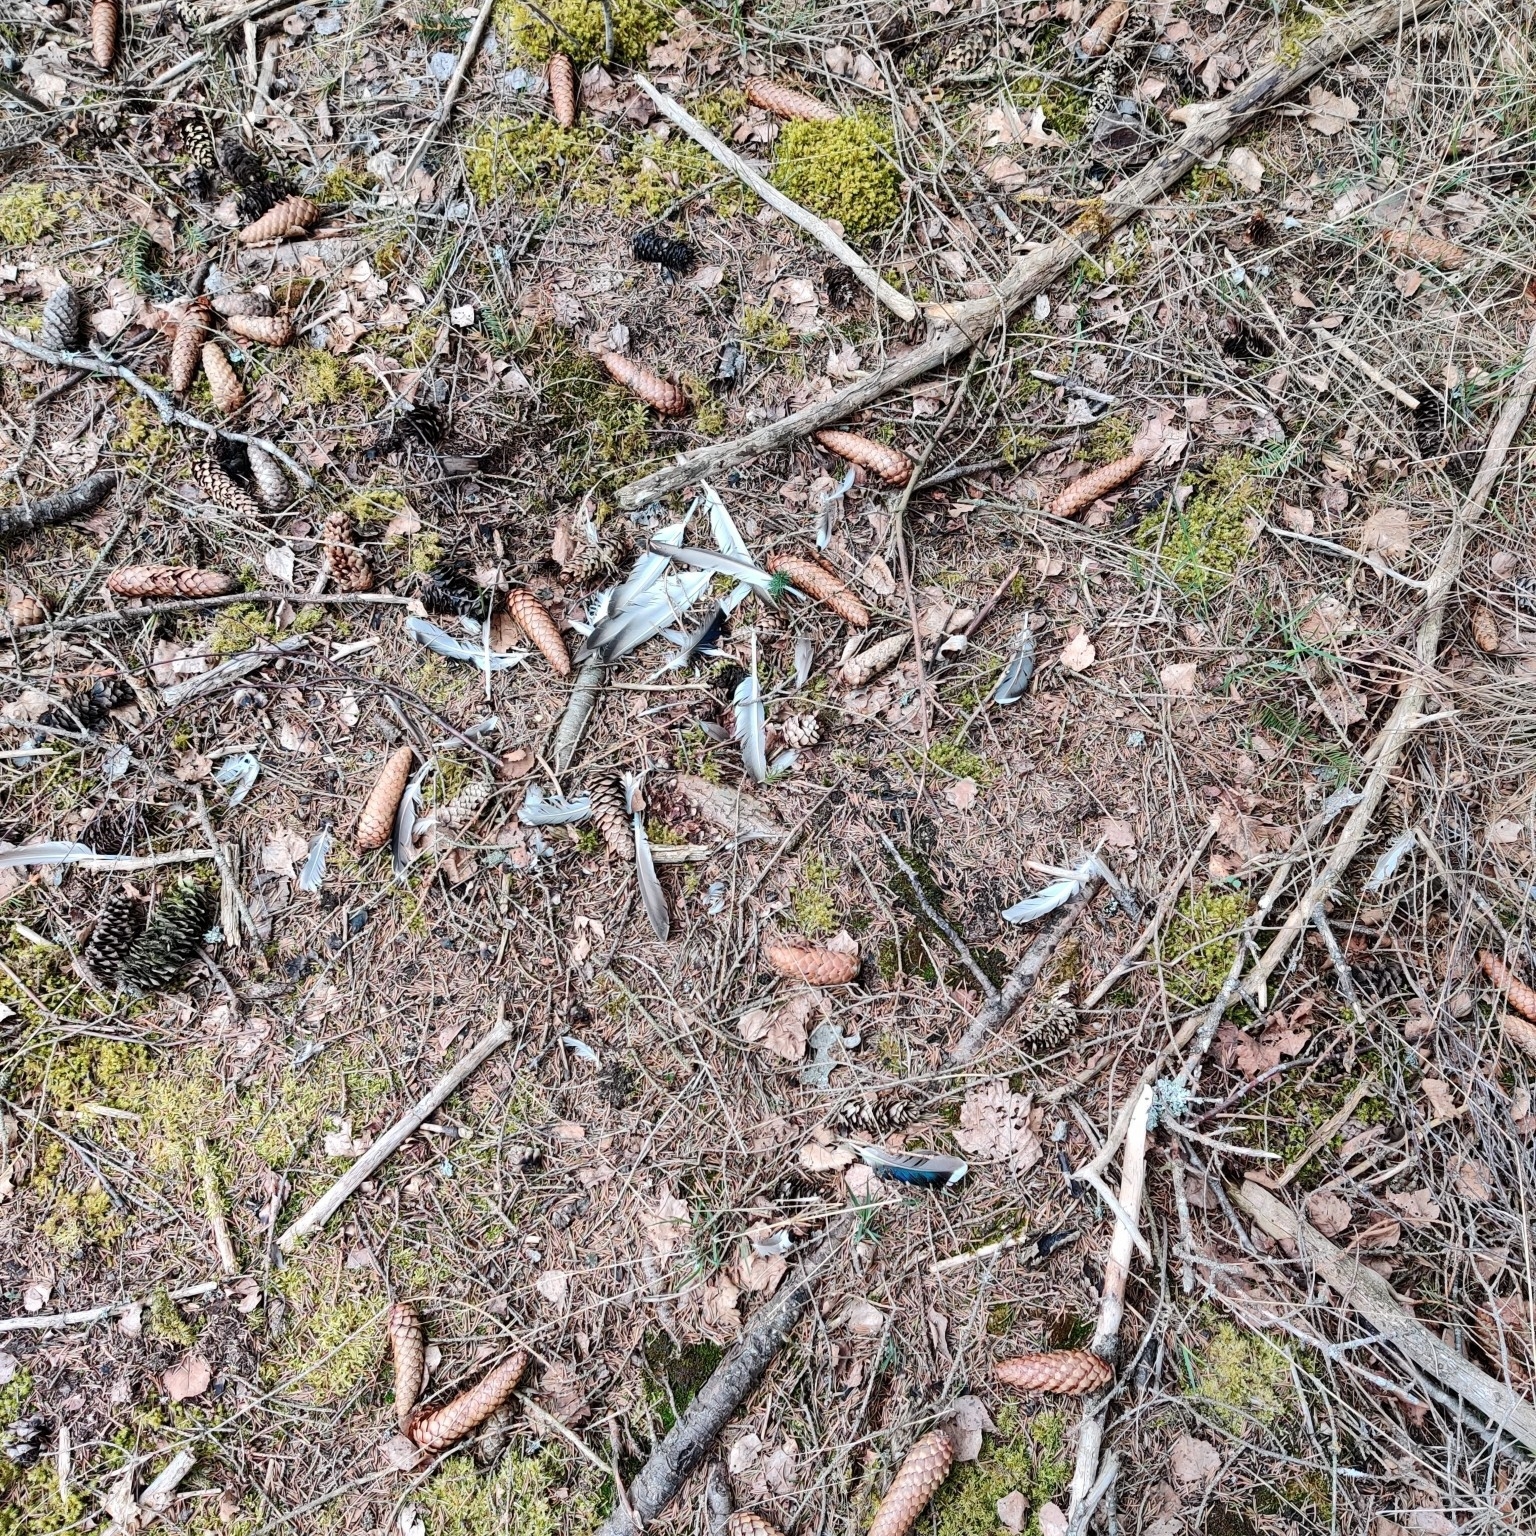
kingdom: Animalia
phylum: Chordata
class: Aves
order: Anseriformes
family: Anatidae
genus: Anas
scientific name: Anas platyrhynchos
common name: Mallard
